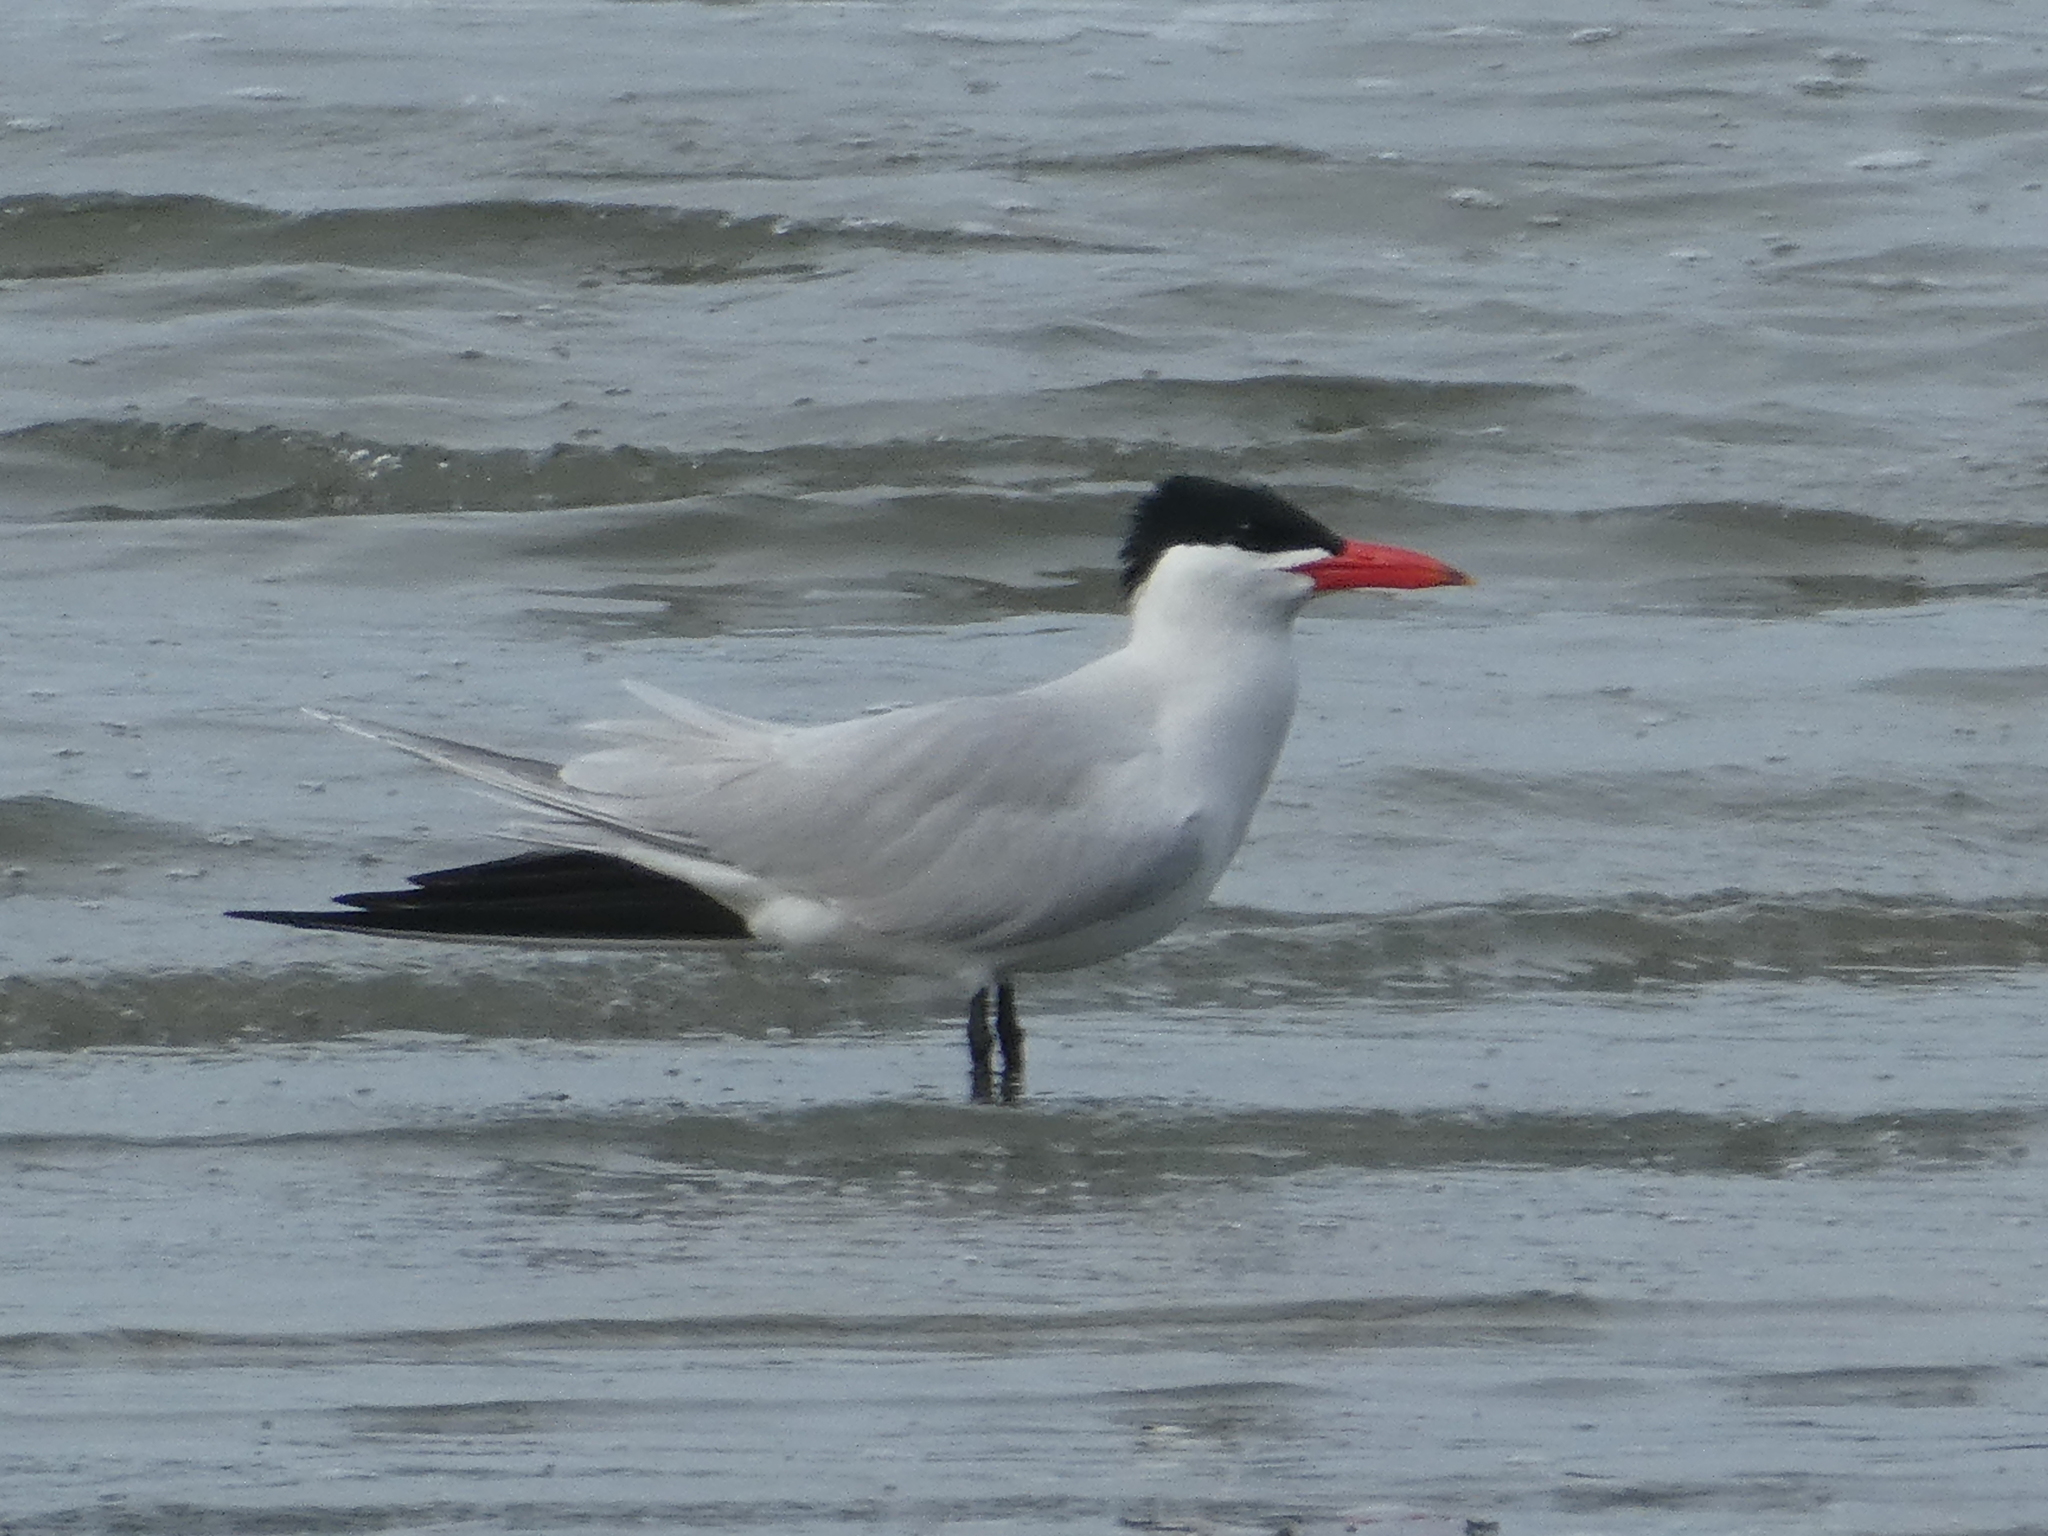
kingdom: Animalia
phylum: Chordata
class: Aves
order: Charadriiformes
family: Laridae
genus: Hydroprogne
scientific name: Hydroprogne caspia
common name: Caspian tern
